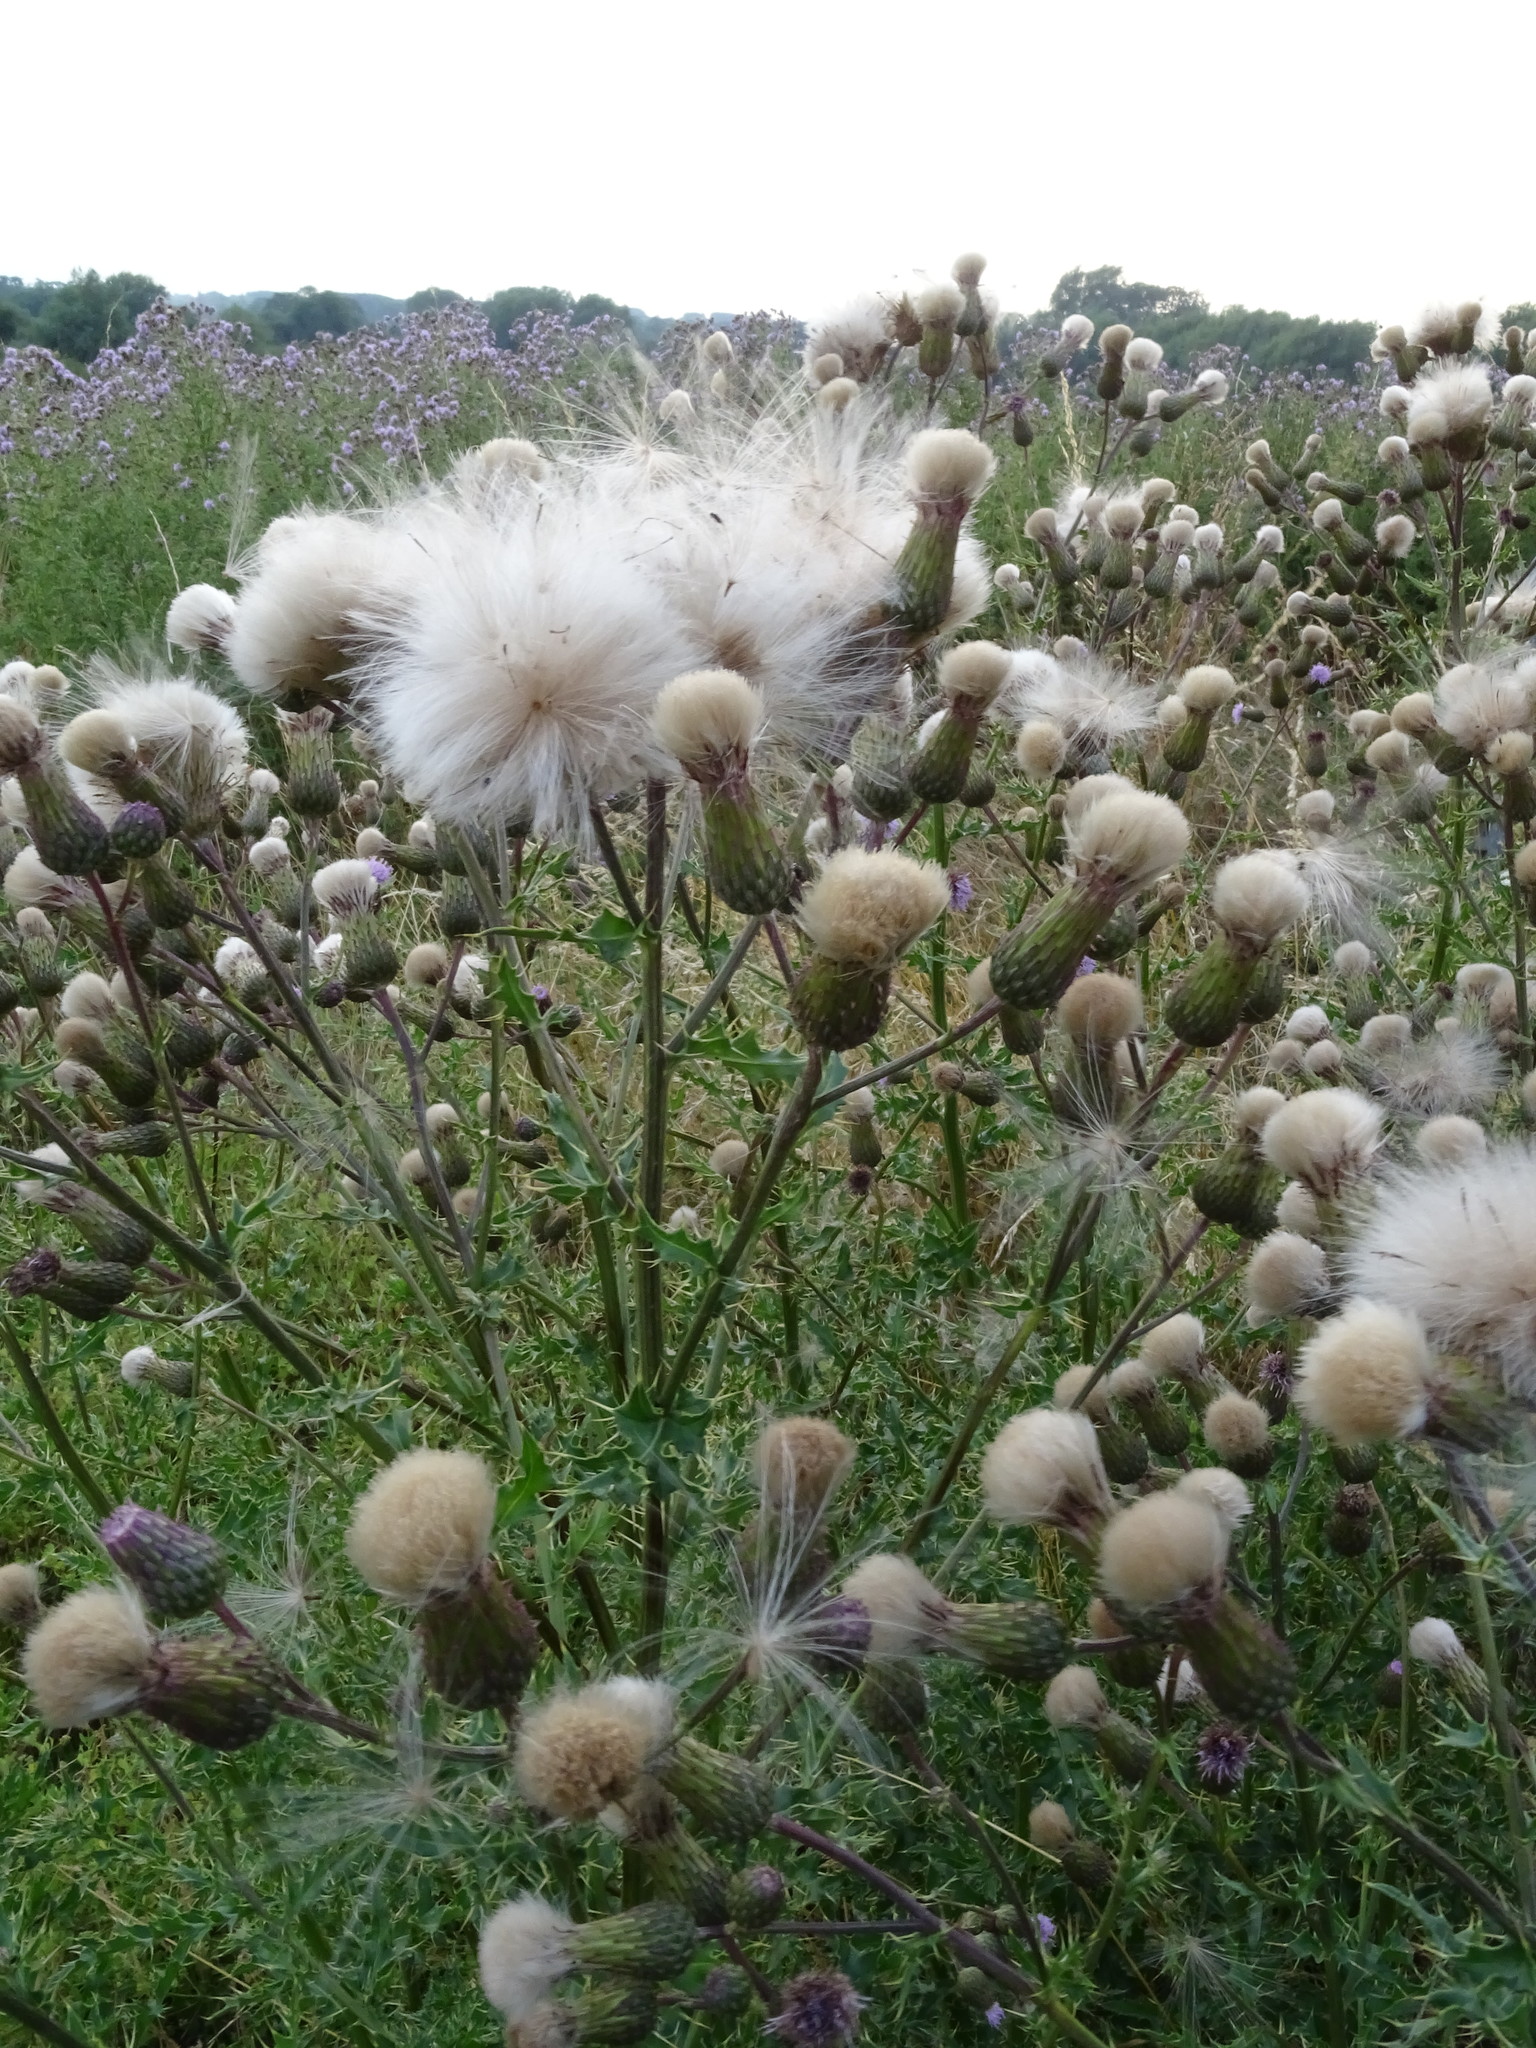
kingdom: Plantae
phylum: Tracheophyta
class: Magnoliopsida
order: Asterales
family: Asteraceae
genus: Cirsium
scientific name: Cirsium arvense
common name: Creeping thistle
